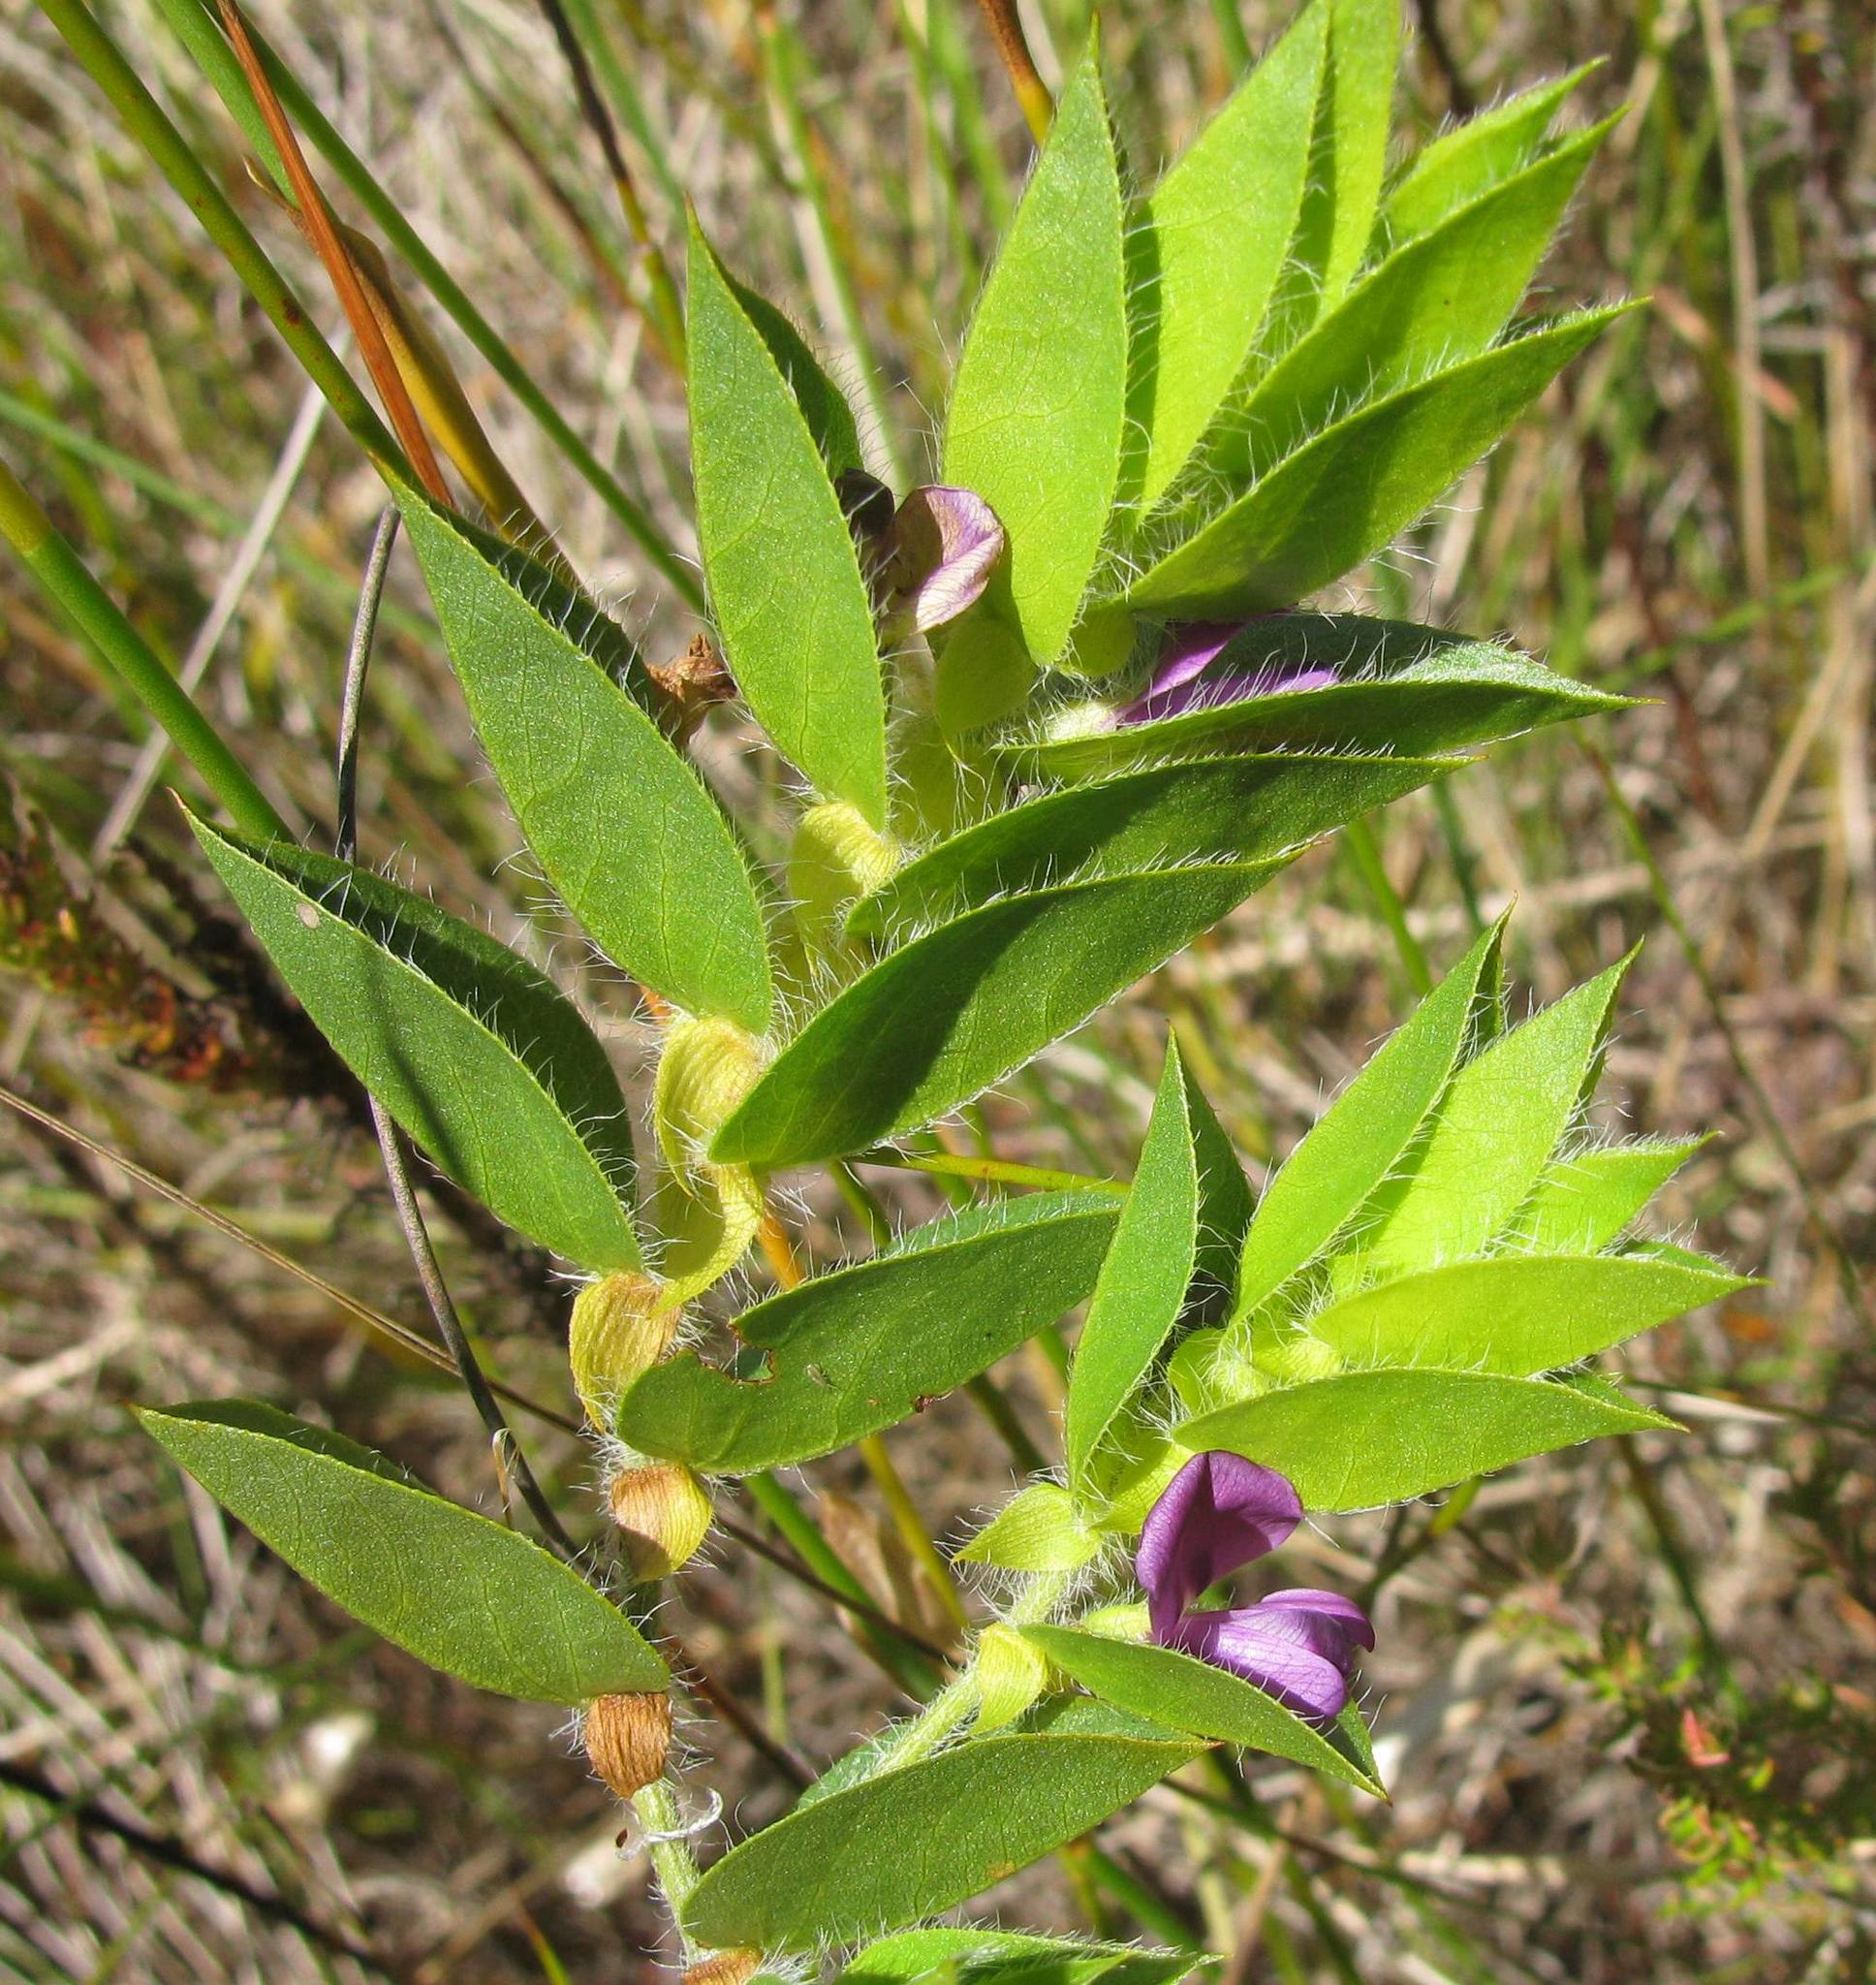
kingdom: Plantae
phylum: Tracheophyta
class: Magnoliopsida
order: Fabales
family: Fabaceae
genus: Psoralea
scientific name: Psoralea imbricata
